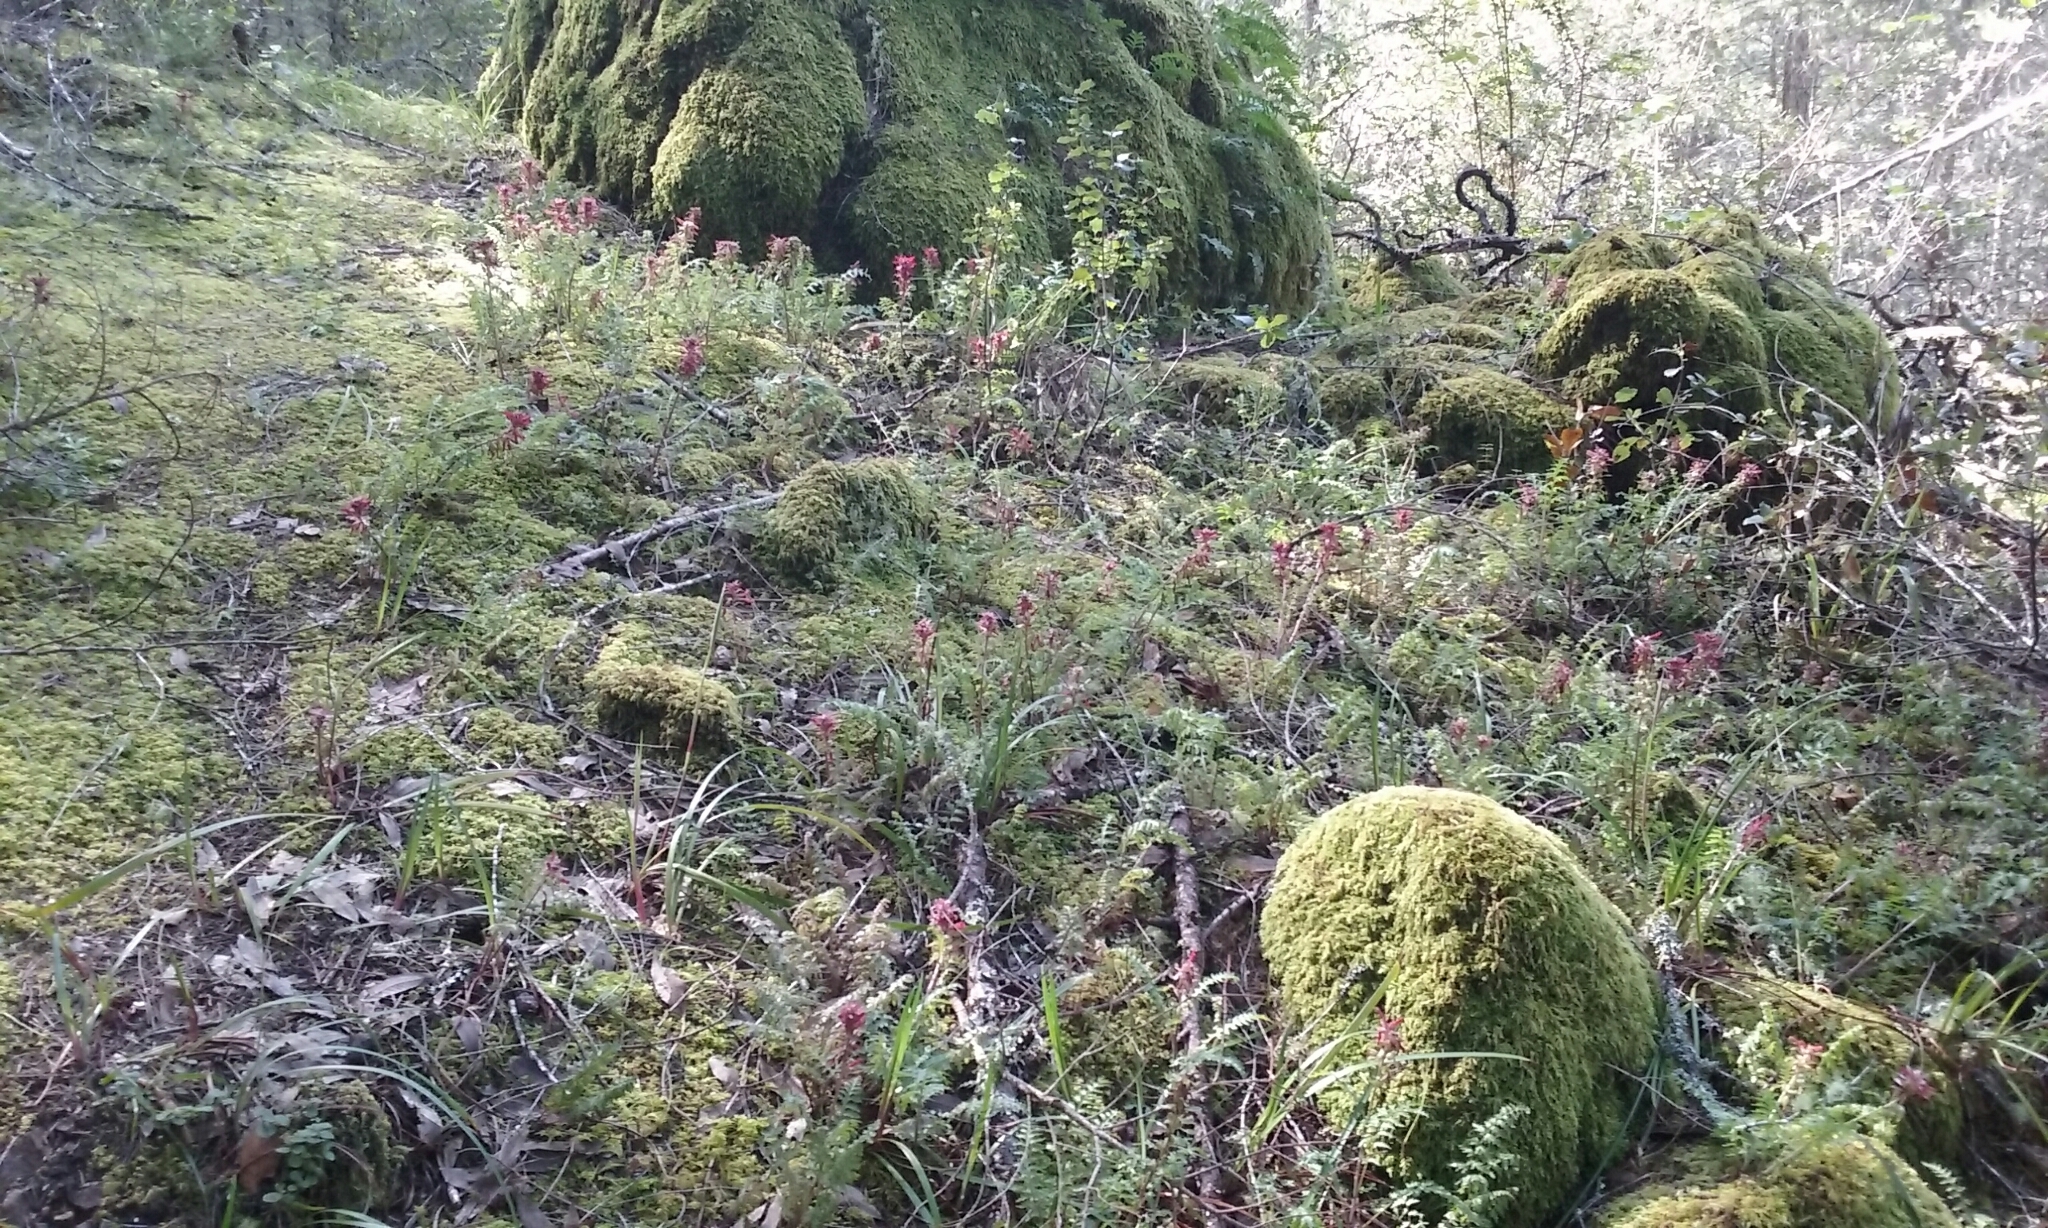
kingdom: Plantae
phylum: Tracheophyta
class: Magnoliopsida
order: Lamiales
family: Orobanchaceae
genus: Pedicularis
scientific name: Pedicularis densiflora
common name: Indian warrior
